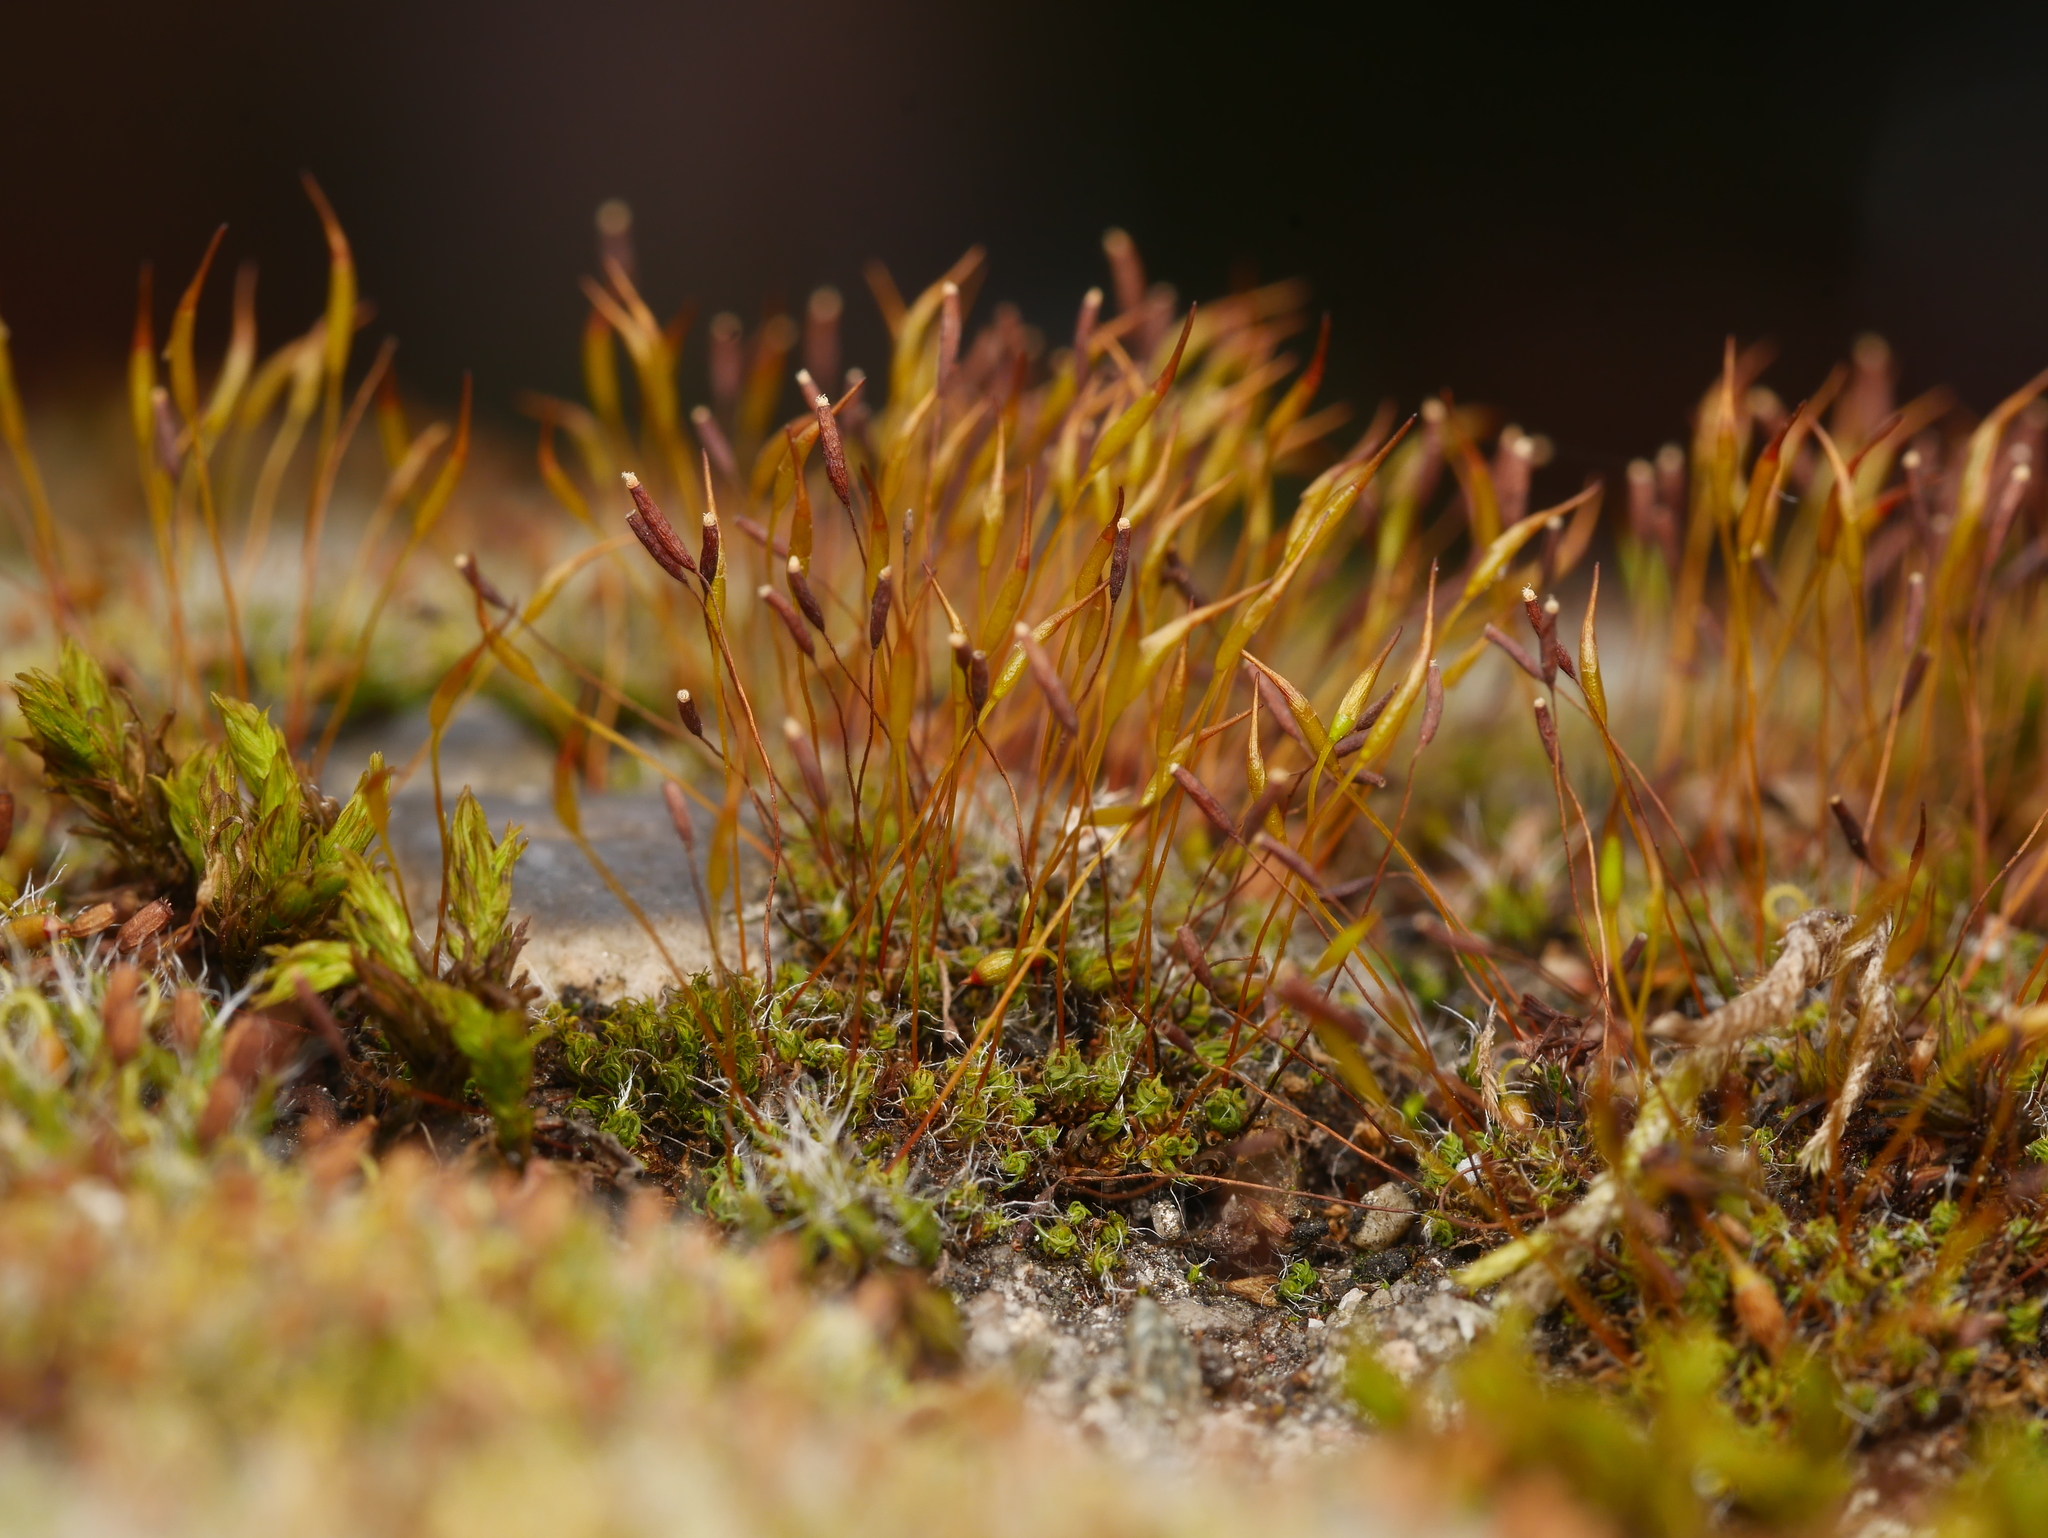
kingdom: Plantae
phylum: Bryophyta
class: Bryopsida
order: Pottiales
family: Pottiaceae
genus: Tortula
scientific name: Tortula muralis
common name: Wall screw-moss
